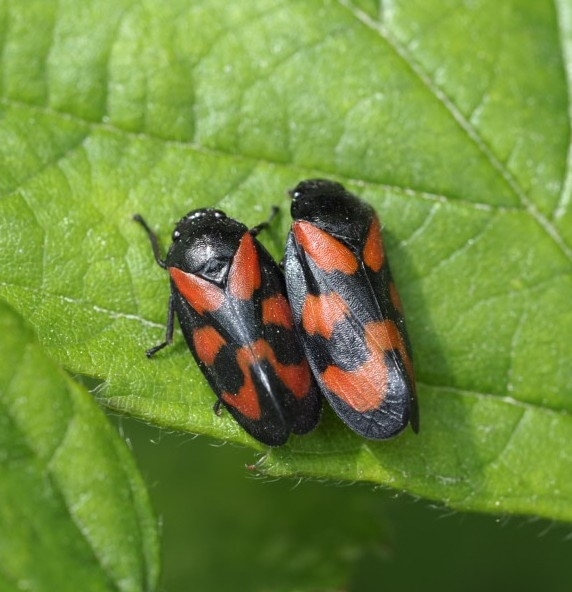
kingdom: Animalia
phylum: Arthropoda
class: Insecta
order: Hemiptera
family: Cercopidae
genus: Cercopis
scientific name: Cercopis vulnerata
